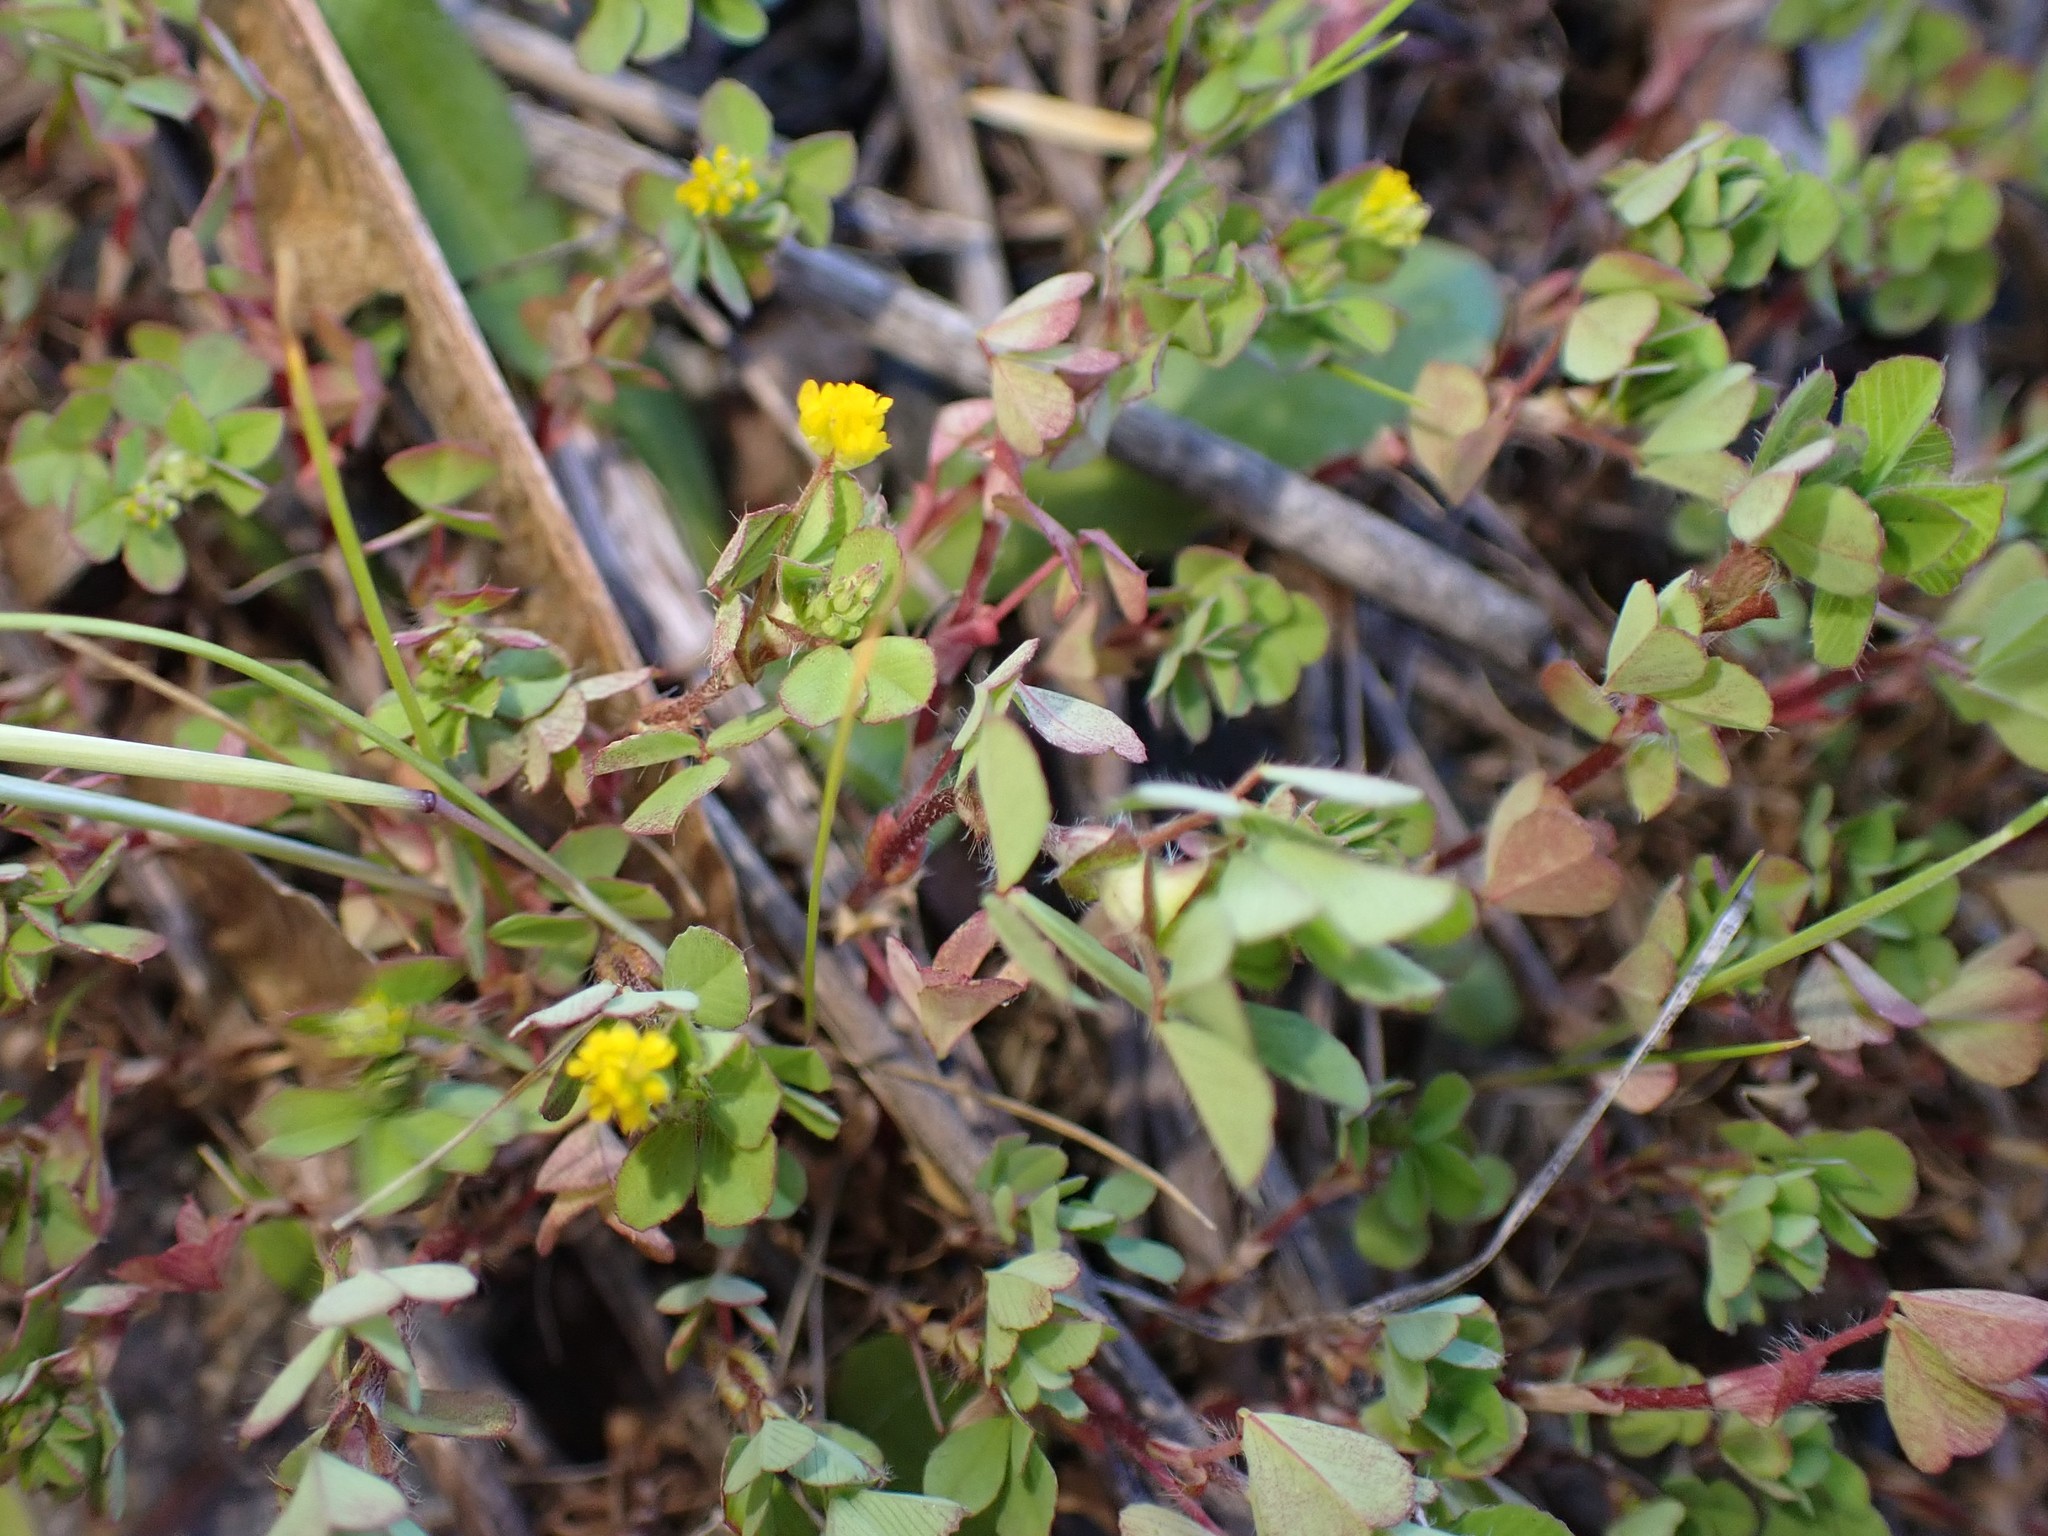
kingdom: Plantae
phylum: Tracheophyta
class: Magnoliopsida
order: Fabales
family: Fabaceae
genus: Trifolium
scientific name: Trifolium dubium
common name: Suckling clover
